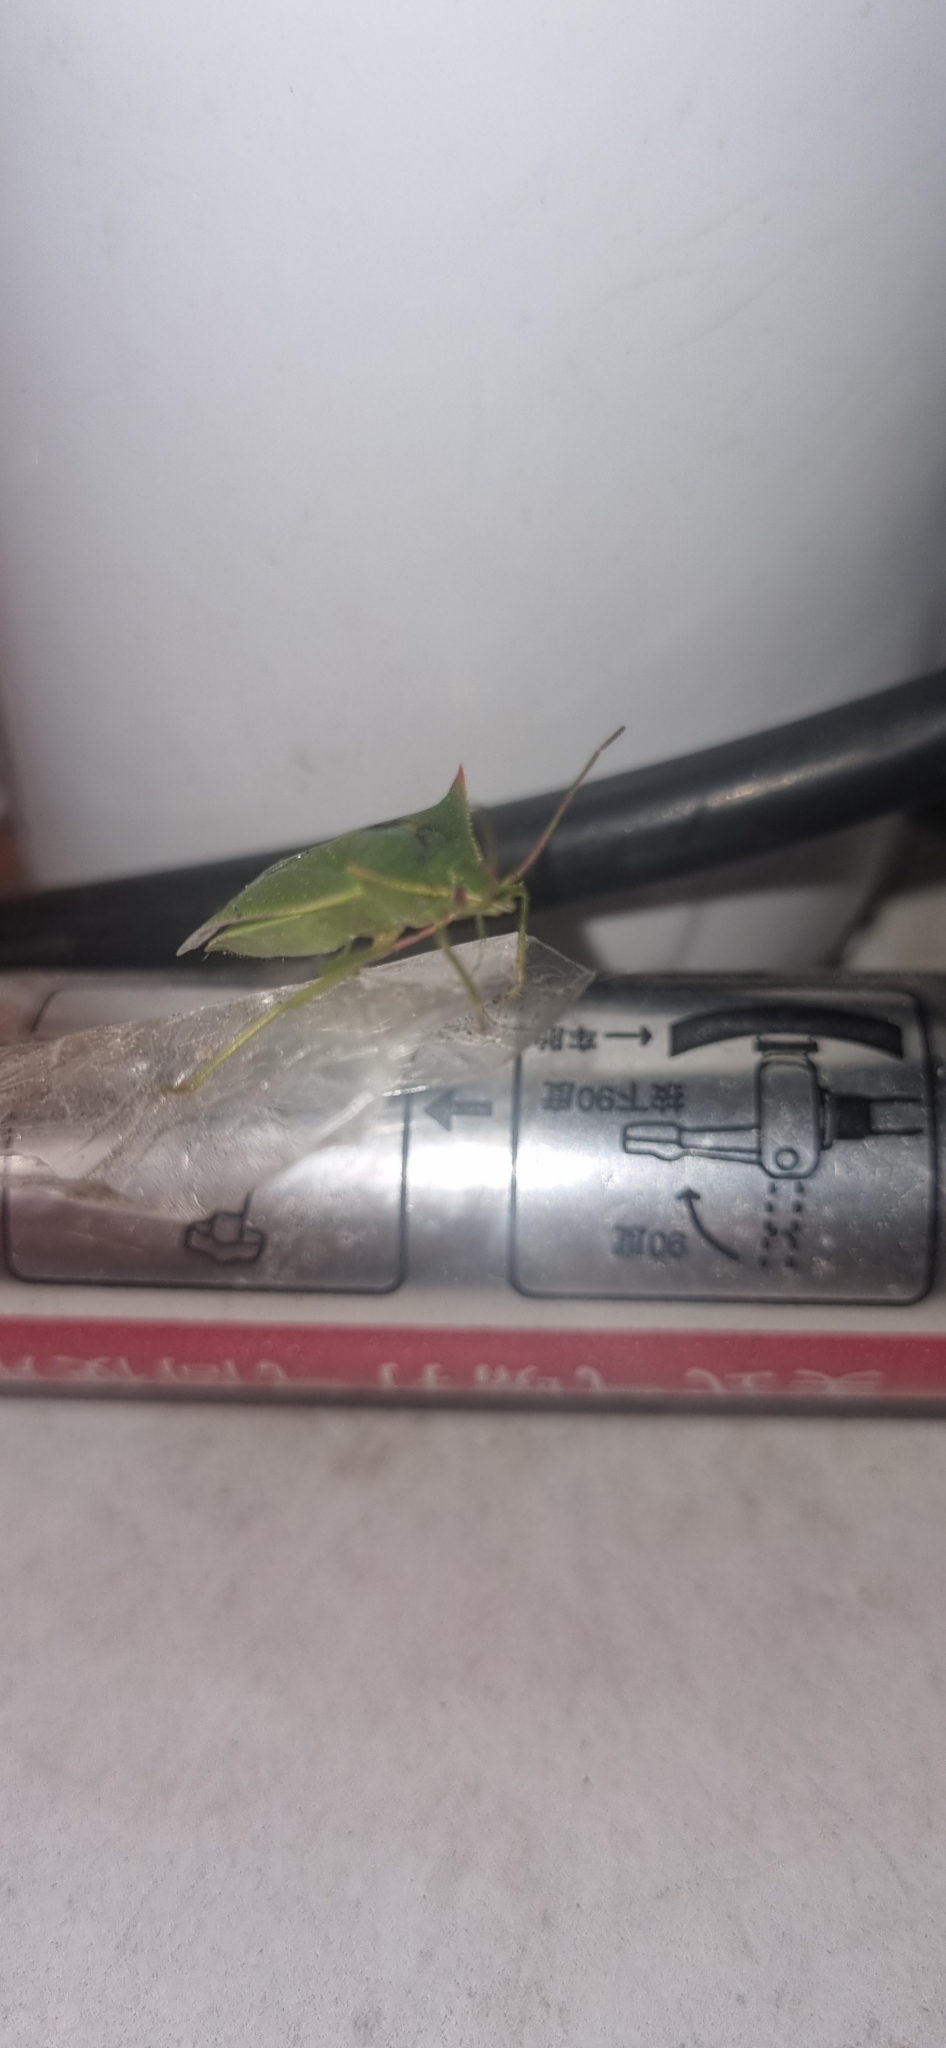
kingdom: Animalia
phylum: Arthropoda
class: Insecta
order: Hemiptera
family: Pentatomidae
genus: Loxa
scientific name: Loxa deducta
